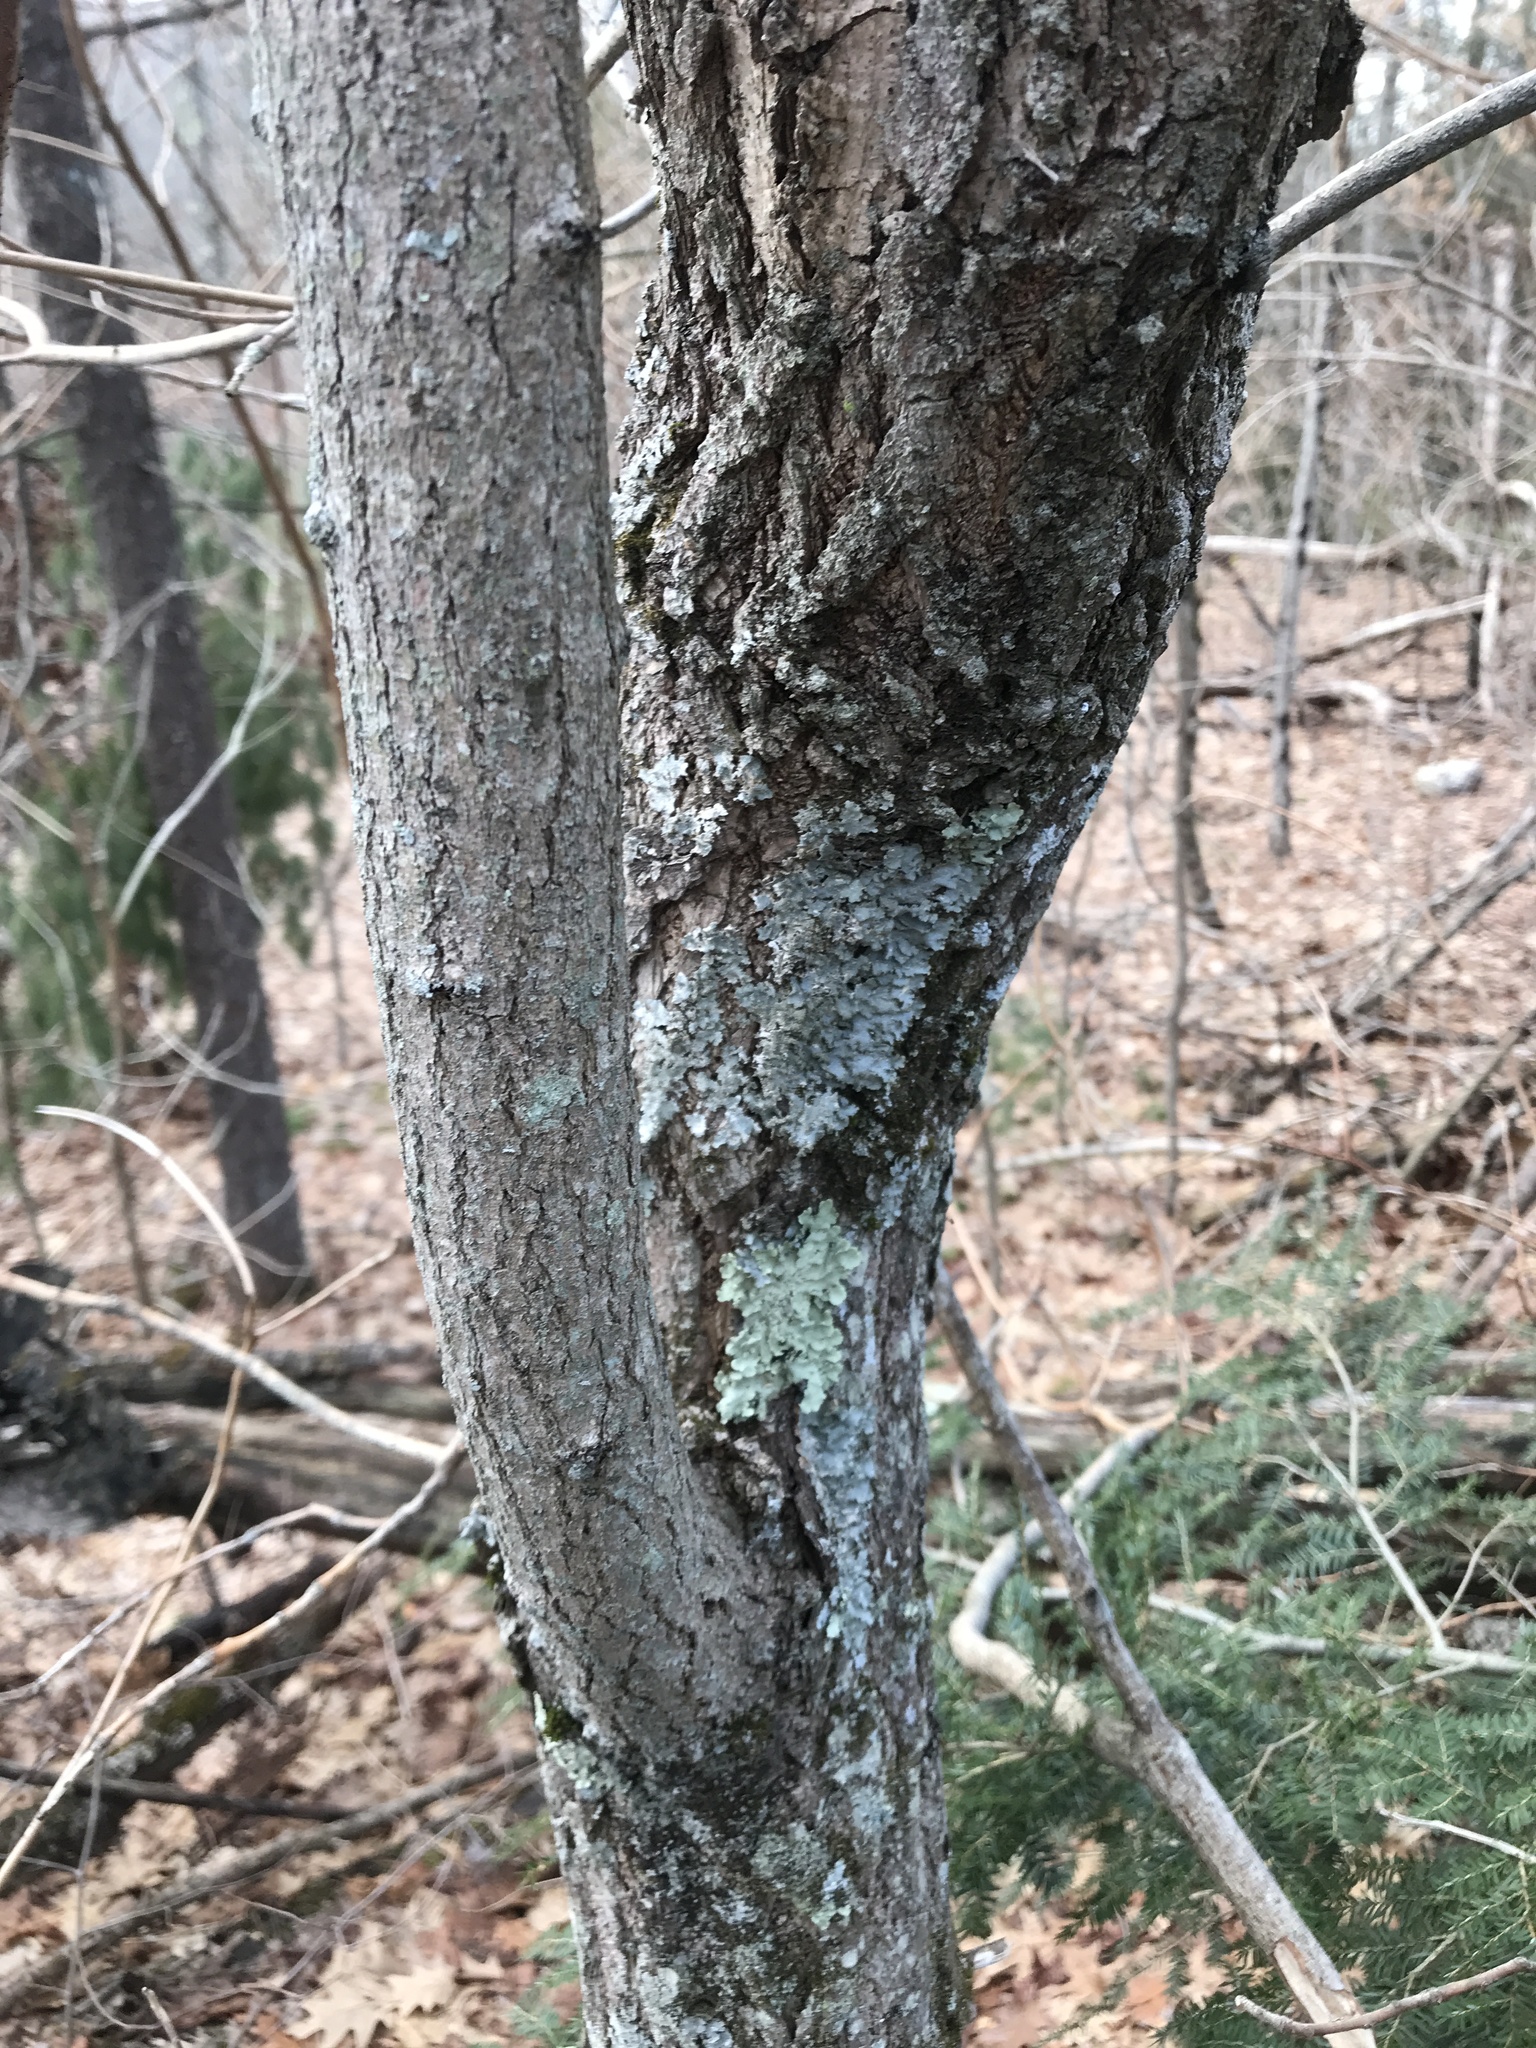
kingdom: Plantae
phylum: Tracheophyta
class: Magnoliopsida
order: Laurales
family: Lauraceae
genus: Sassafras
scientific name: Sassafras albidum
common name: Sassafras
